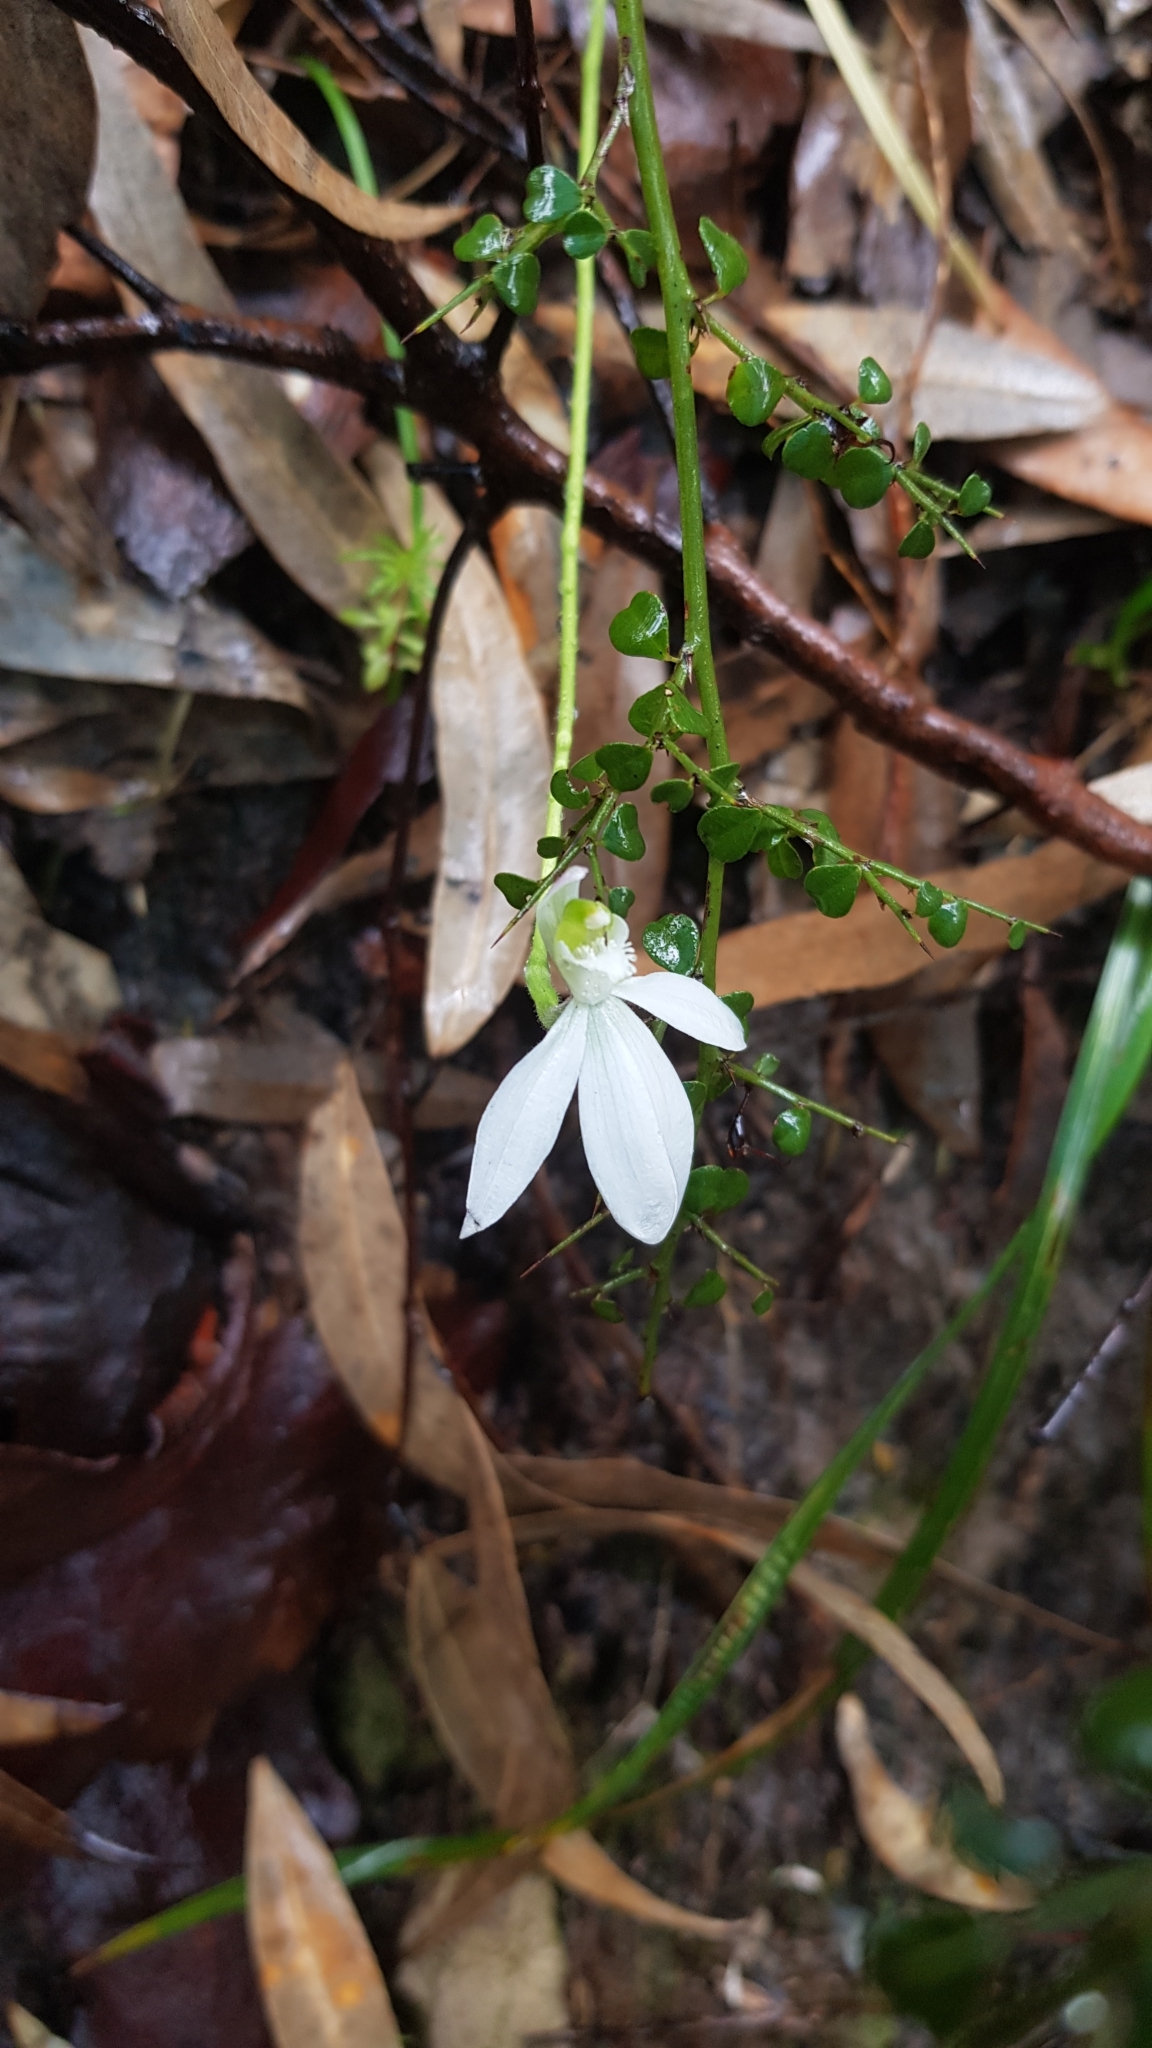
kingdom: Plantae
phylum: Tracheophyta
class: Liliopsida
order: Asparagales
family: Orchidaceae
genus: Caladenia
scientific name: Caladenia catenata
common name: White caladenia
